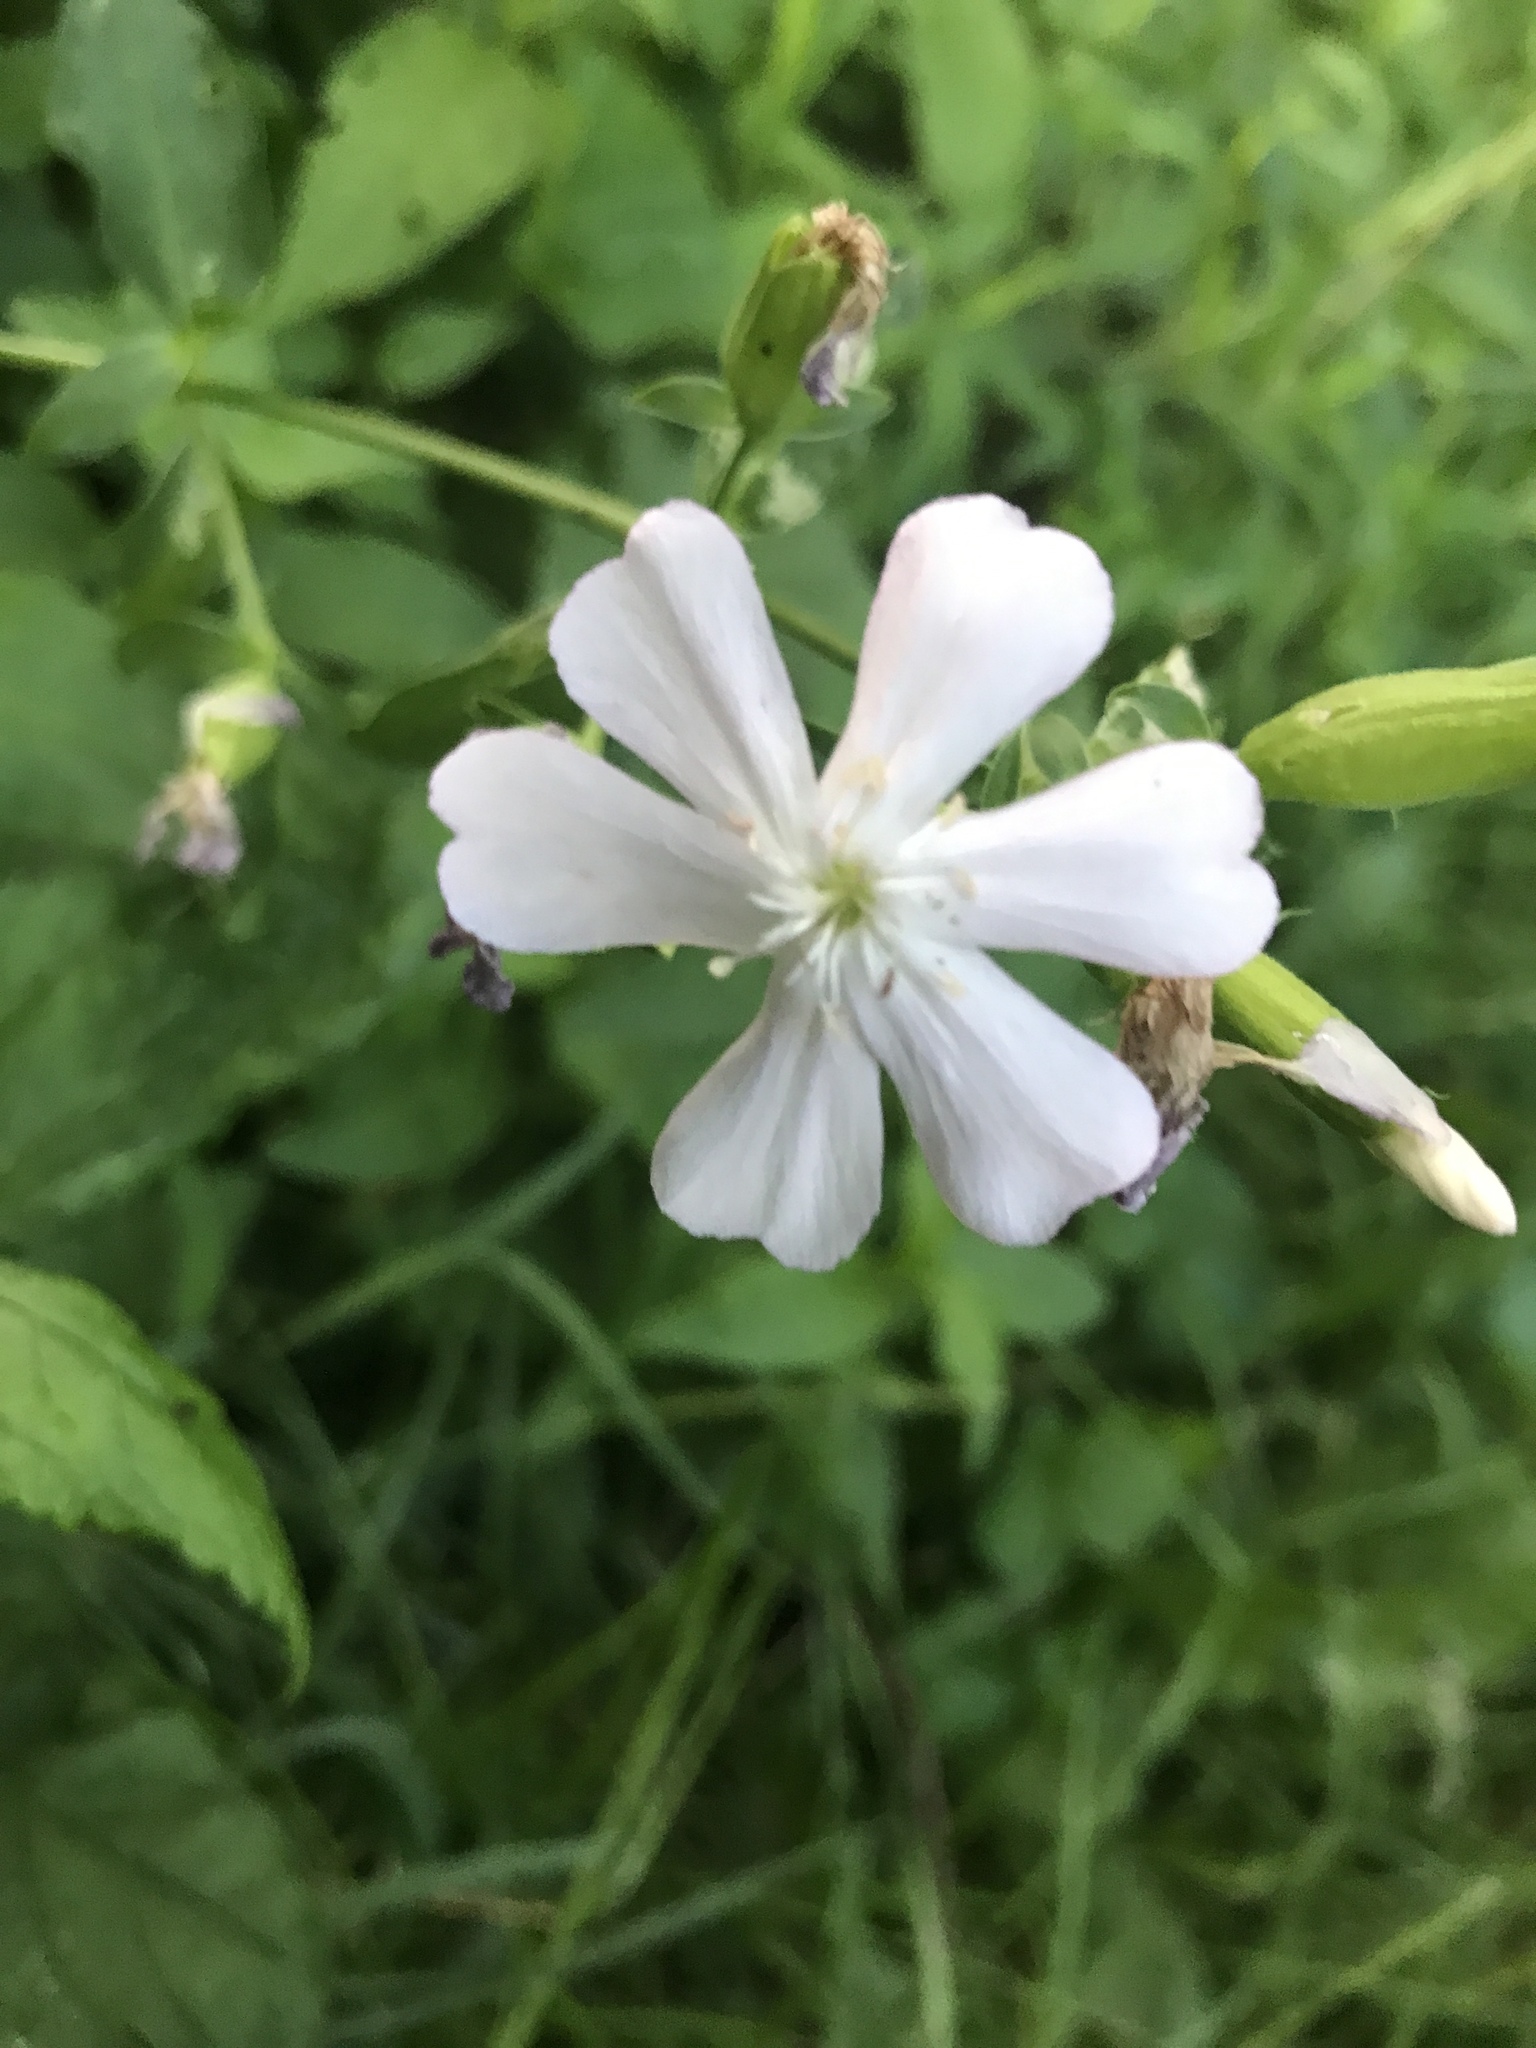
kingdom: Plantae
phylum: Tracheophyta
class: Magnoliopsida
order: Caryophyllales
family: Caryophyllaceae
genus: Saponaria
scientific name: Saponaria officinalis
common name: Soapwort
